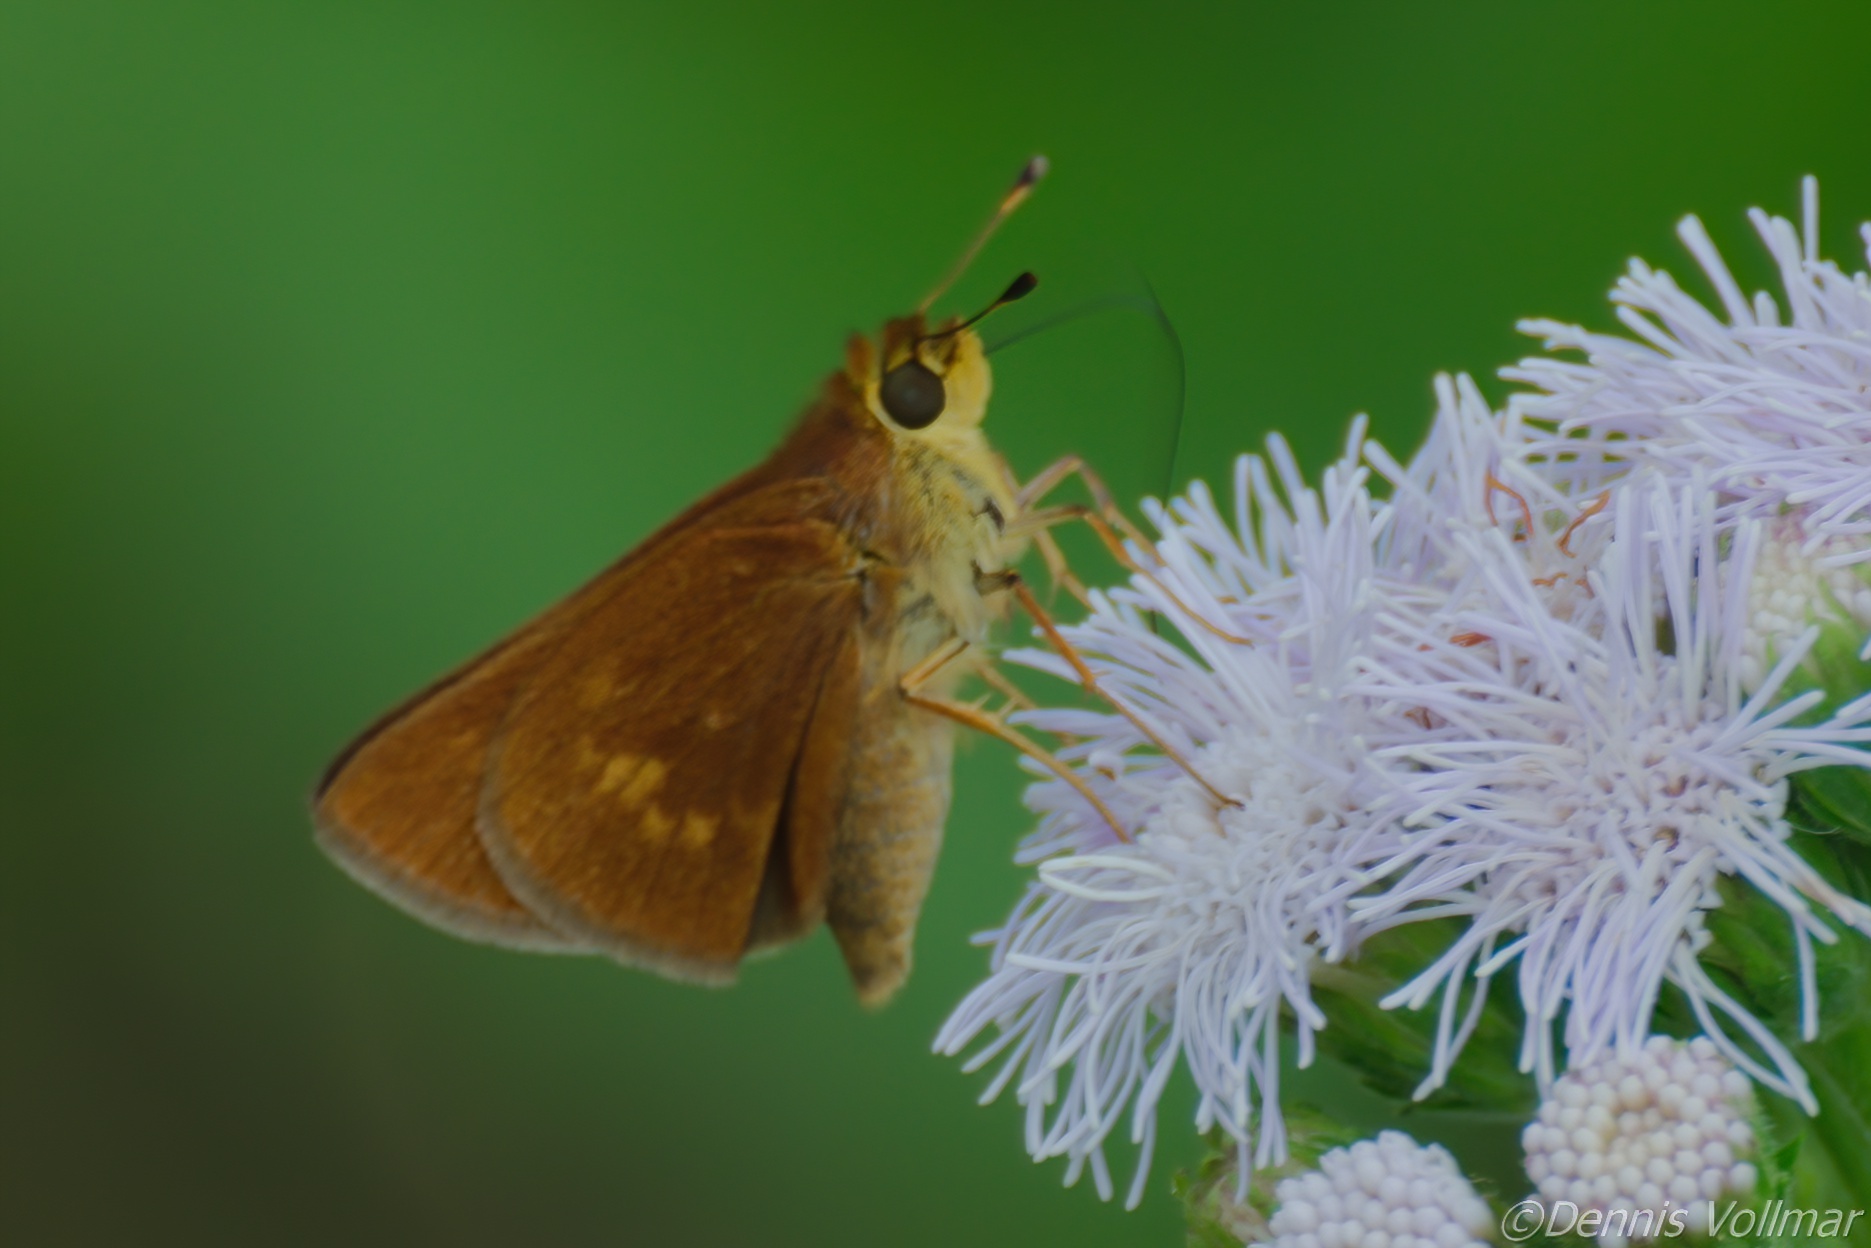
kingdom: Animalia
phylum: Arthropoda
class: Insecta
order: Lepidoptera
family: Hesperiidae
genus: Polites
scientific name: Polites otho
